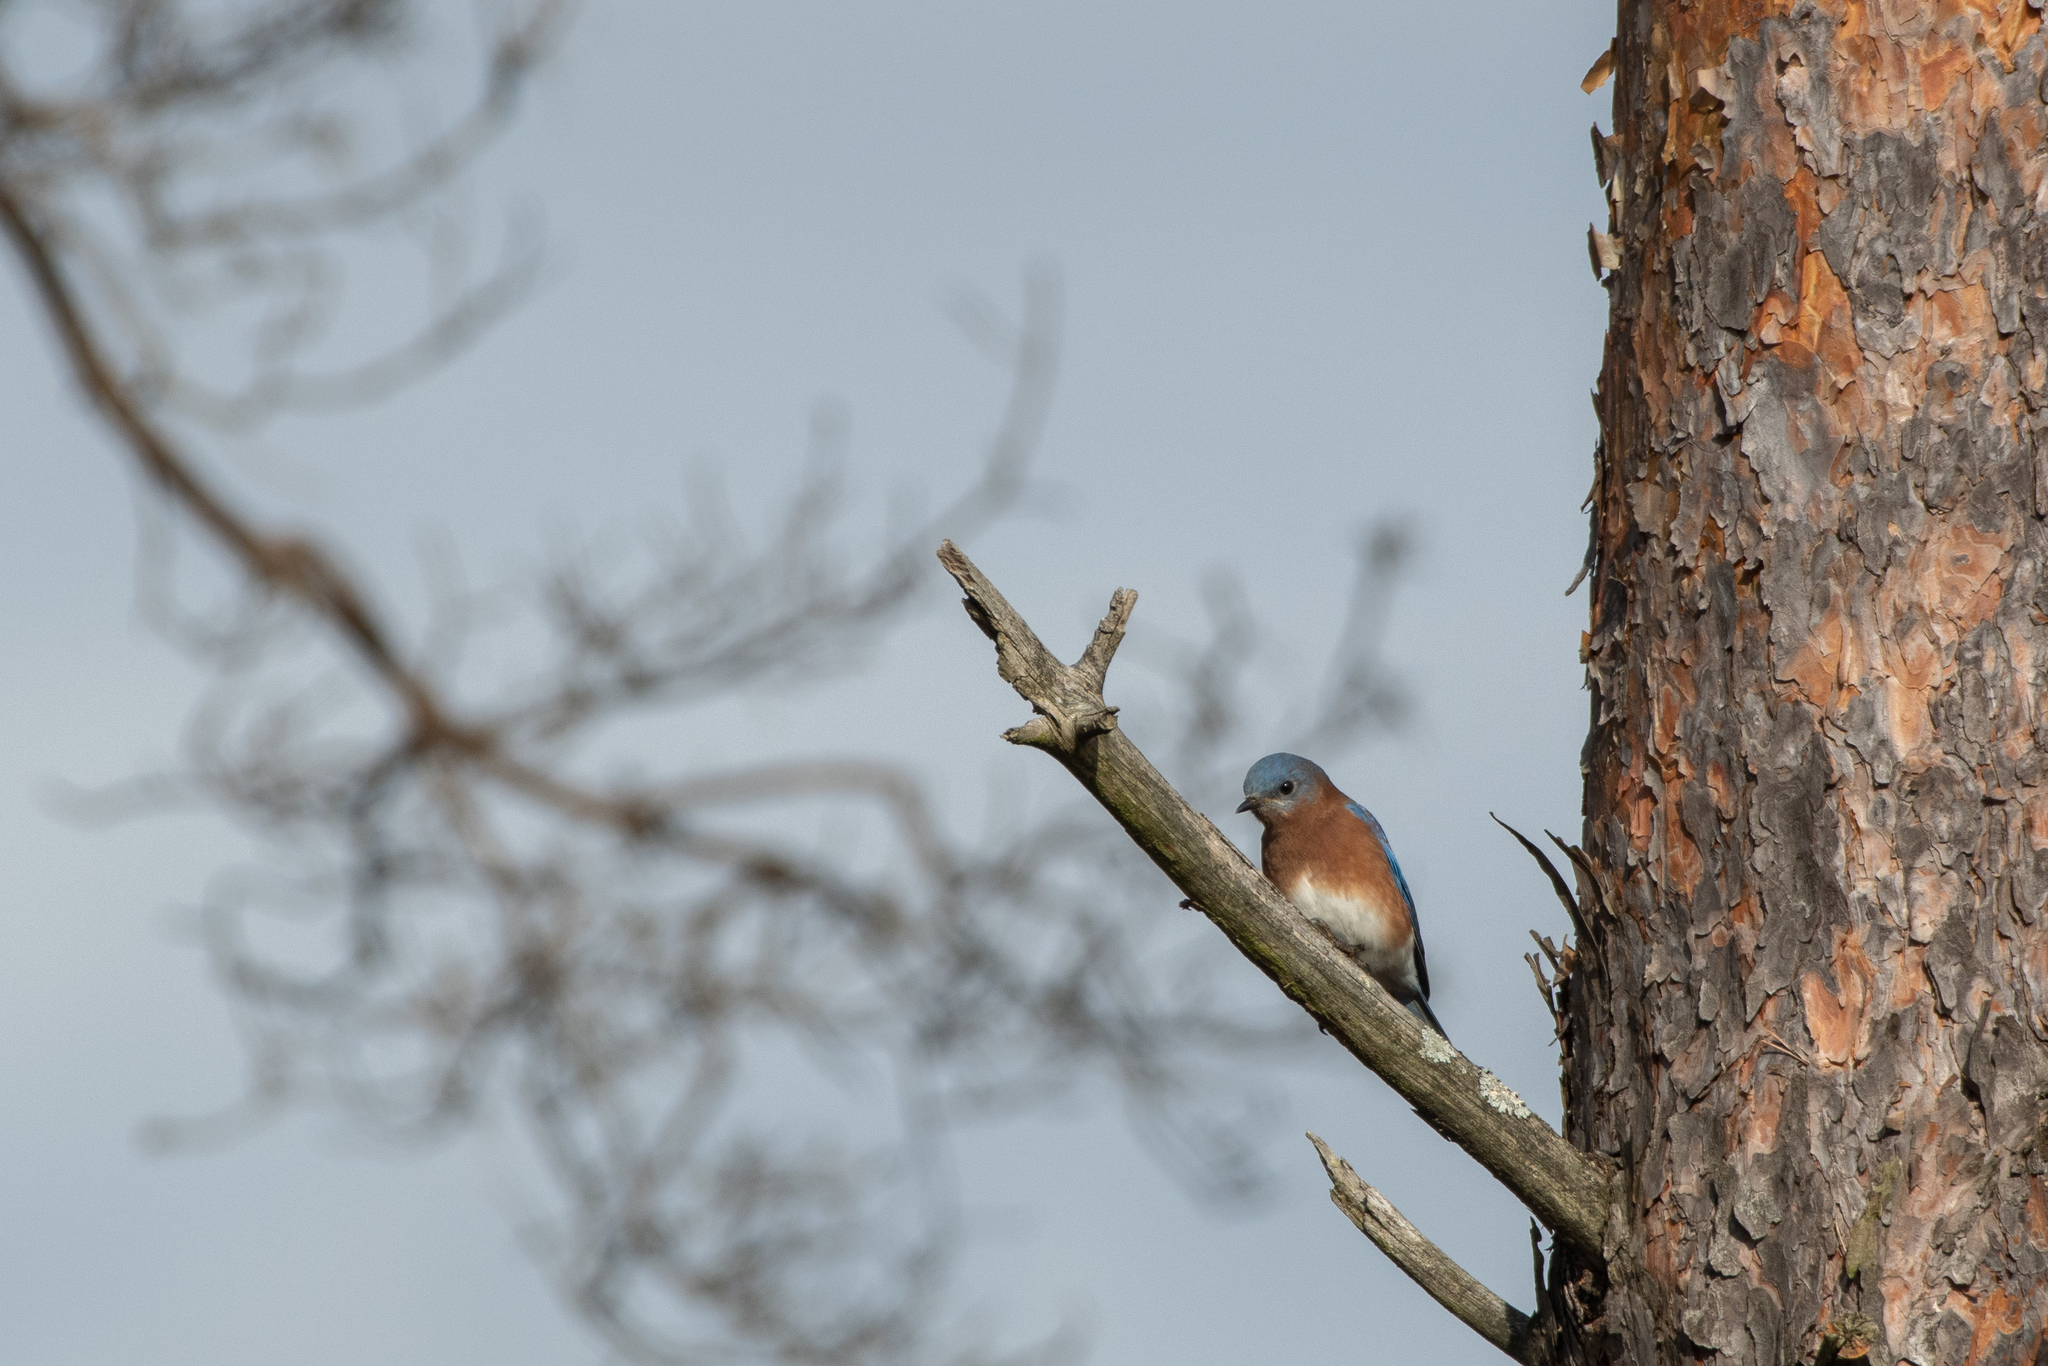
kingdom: Animalia
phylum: Chordata
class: Aves
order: Passeriformes
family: Turdidae
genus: Sialia
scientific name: Sialia sialis
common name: Eastern bluebird
